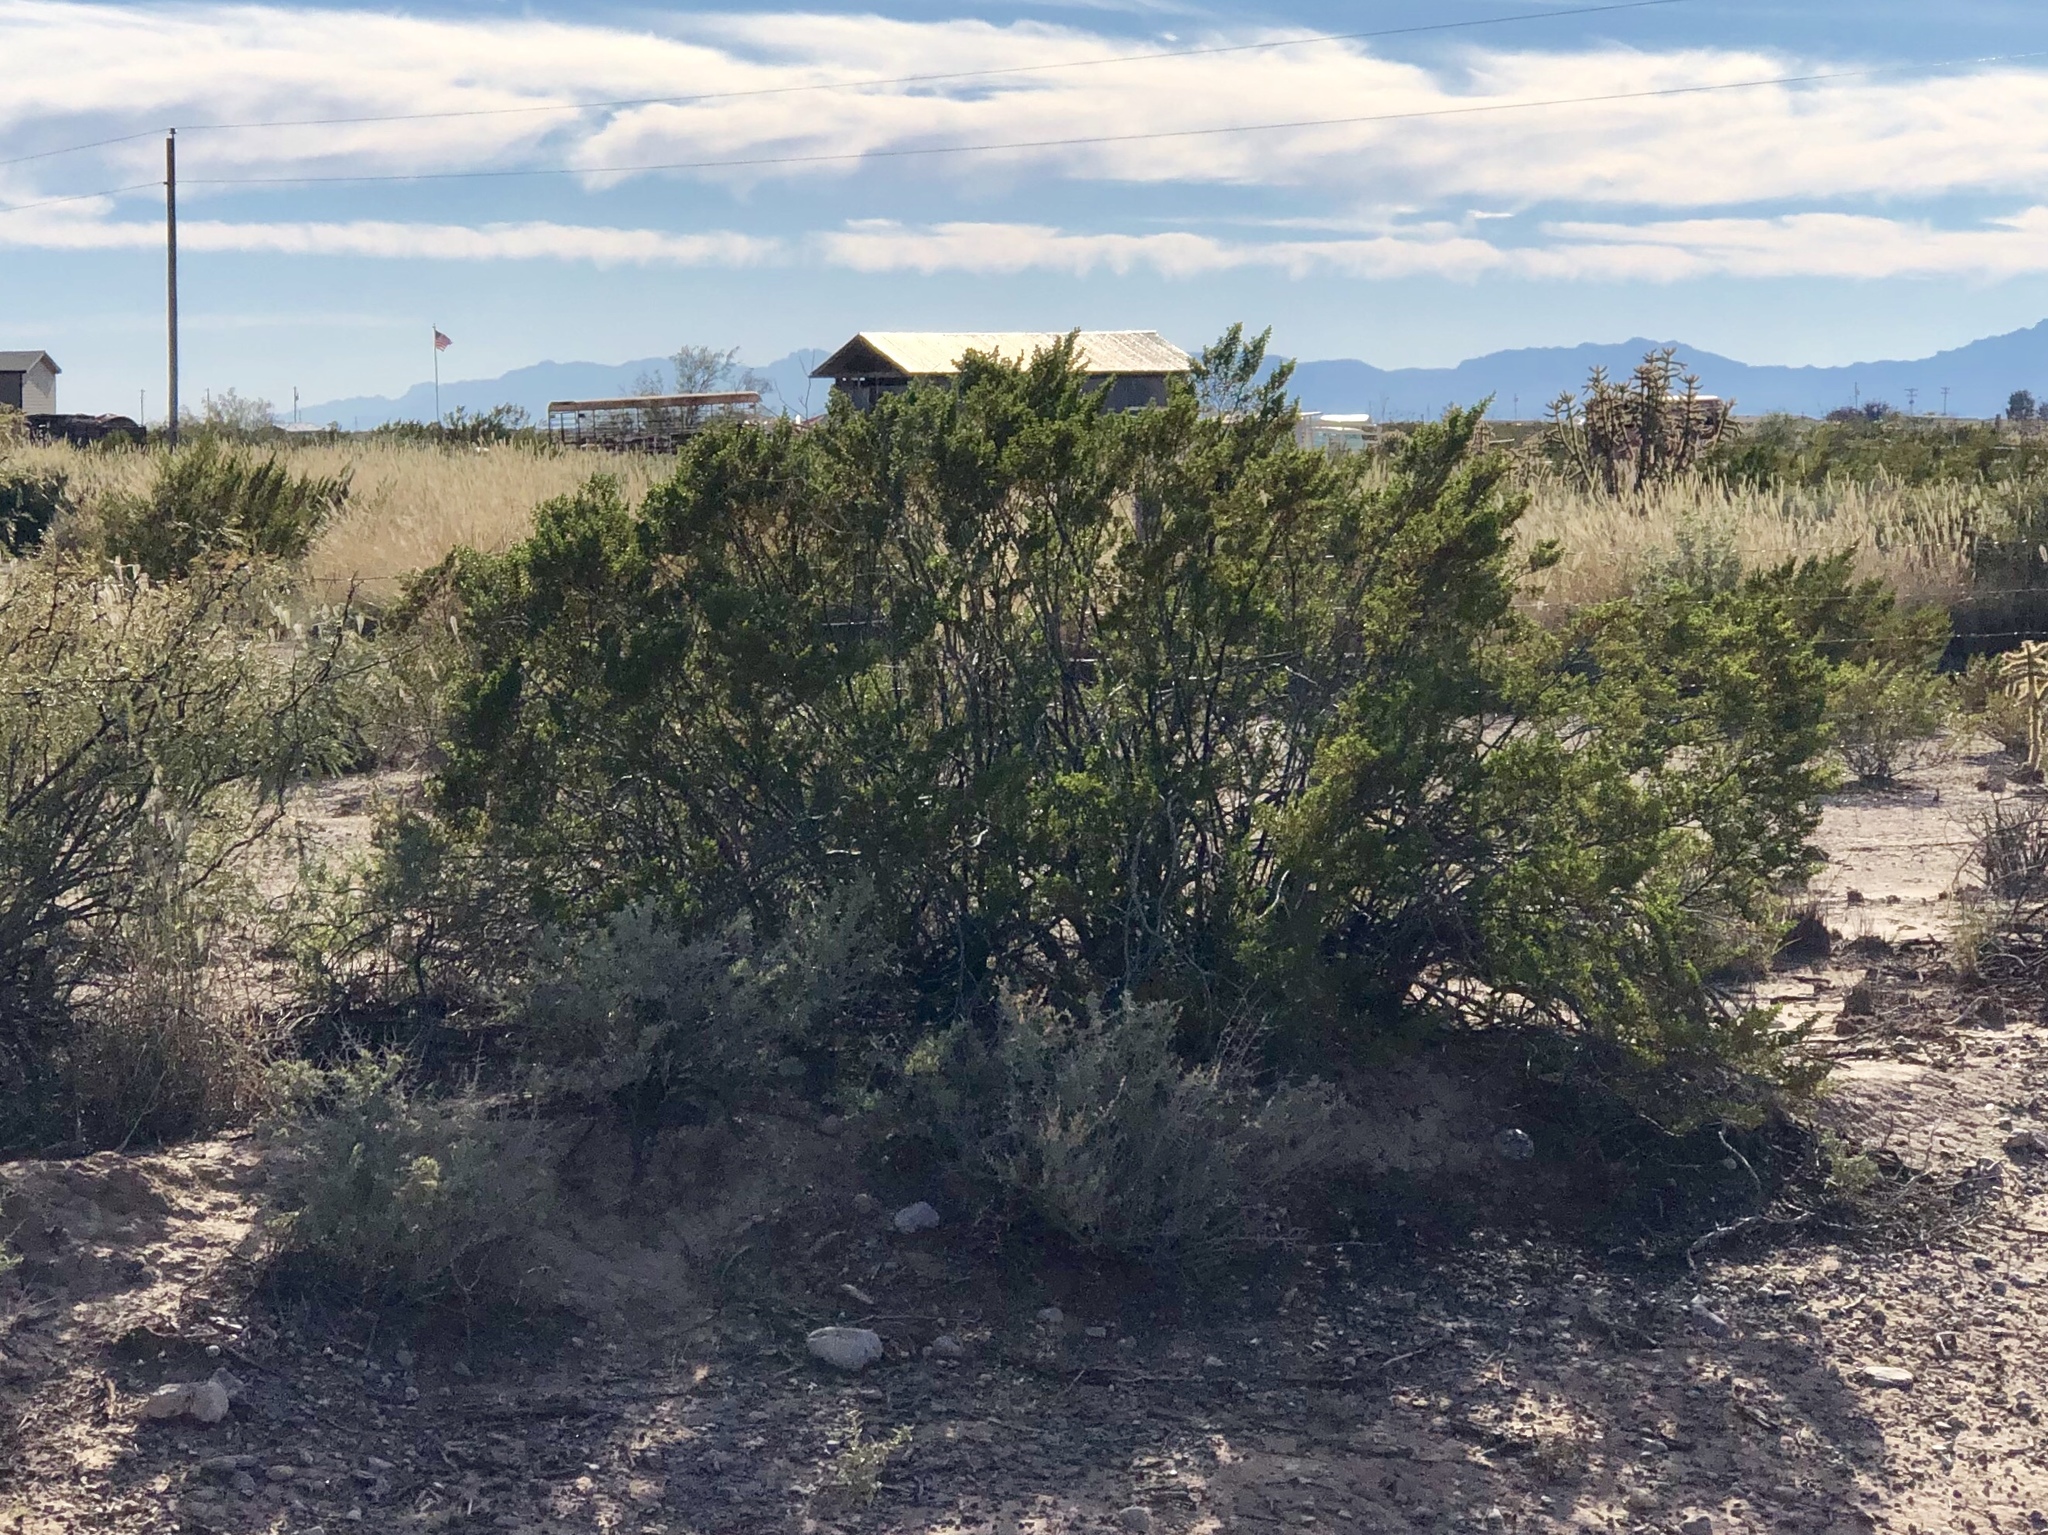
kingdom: Plantae
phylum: Tracheophyta
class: Magnoliopsida
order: Zygophyllales
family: Zygophyllaceae
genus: Larrea
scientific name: Larrea tridentata
